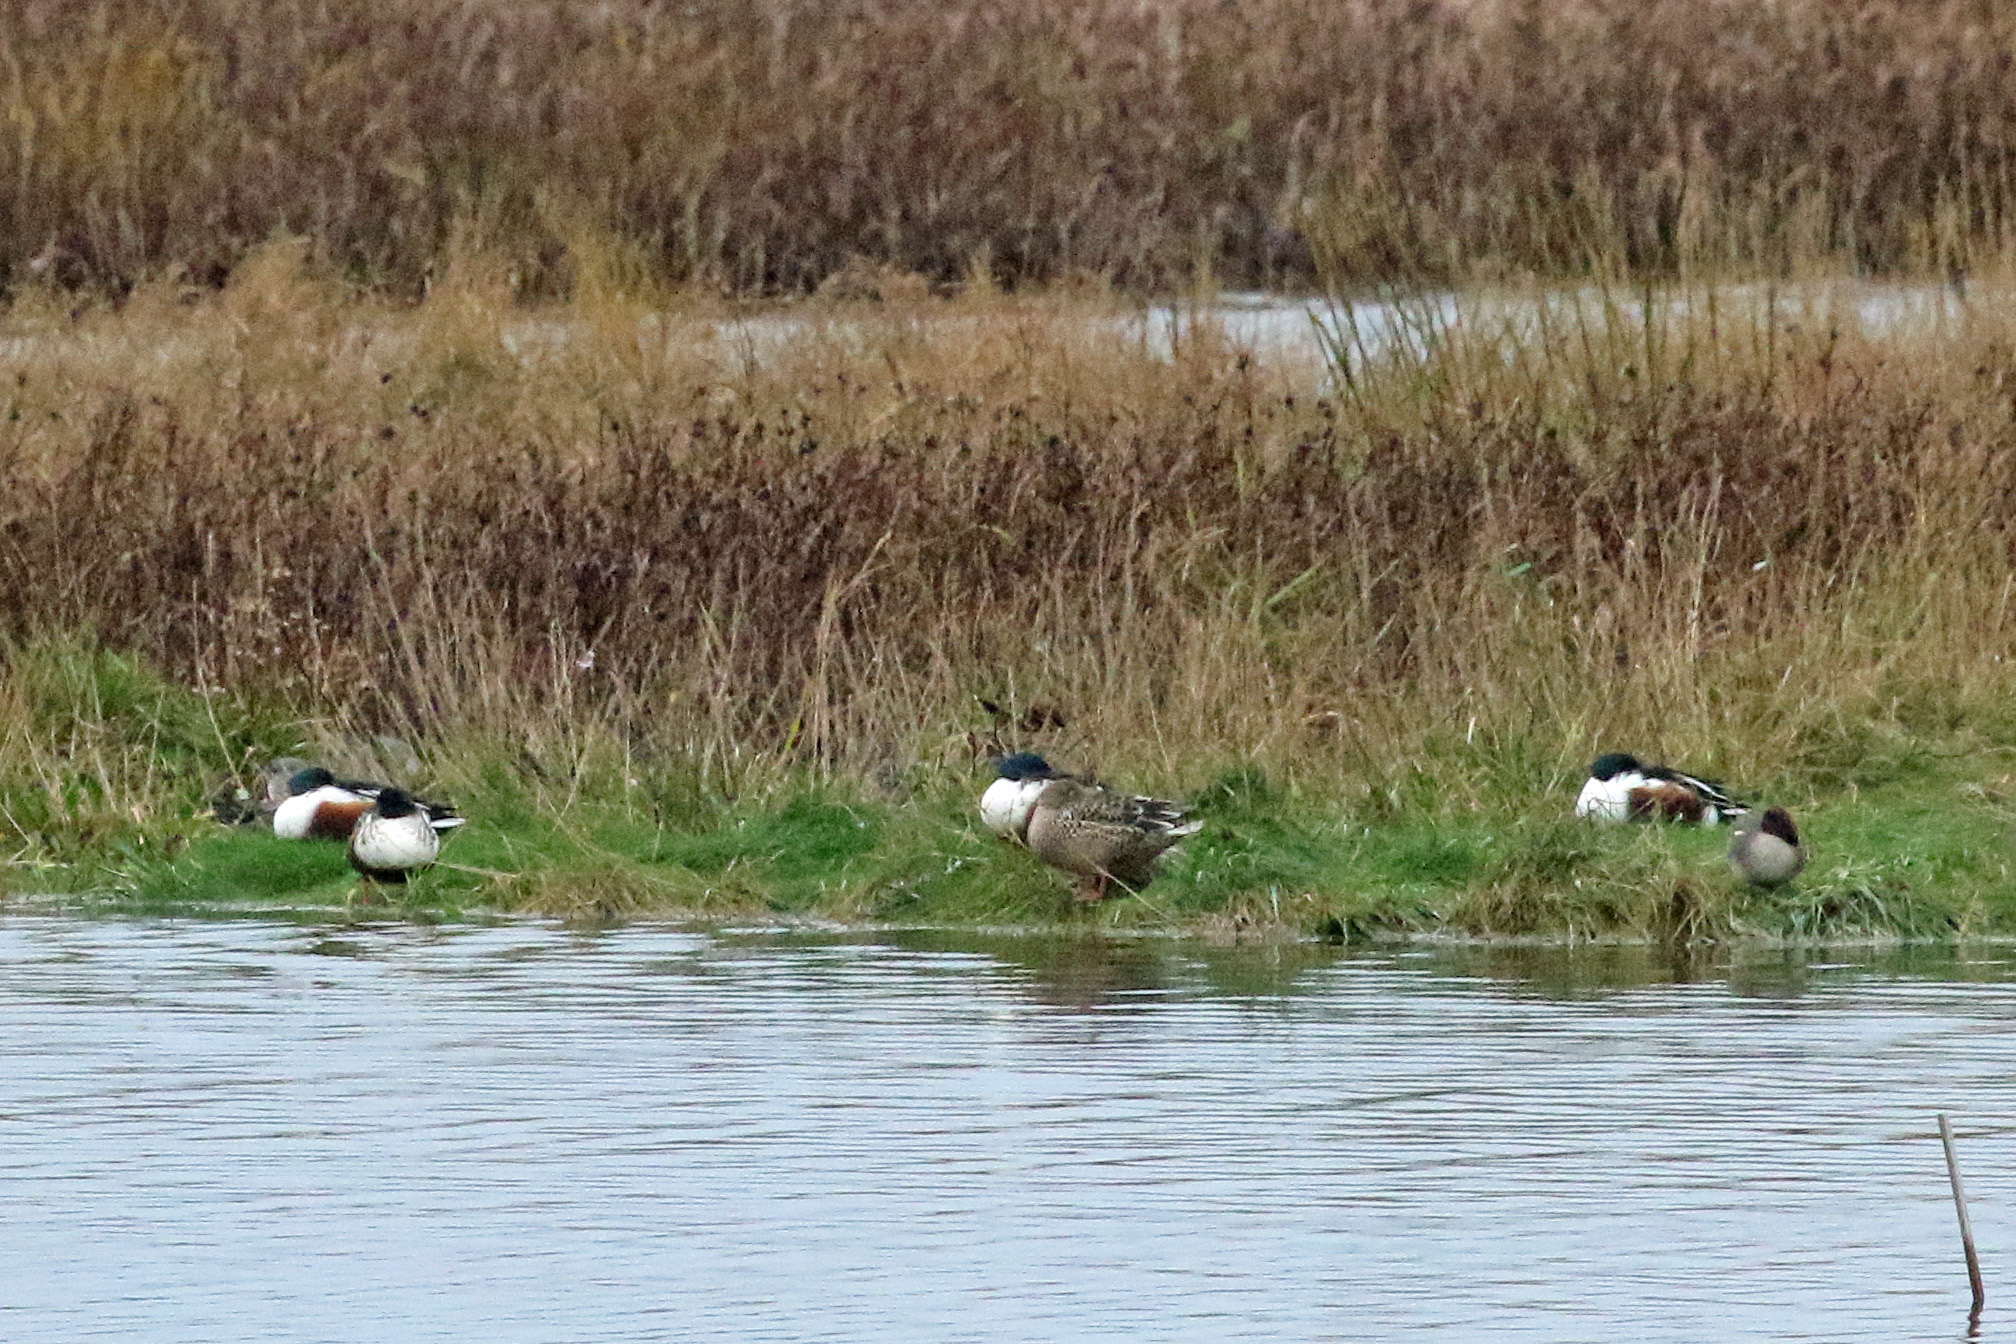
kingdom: Animalia
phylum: Chordata
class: Aves
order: Anseriformes
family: Anatidae
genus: Spatula
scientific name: Spatula clypeata
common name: Northern shoveler
